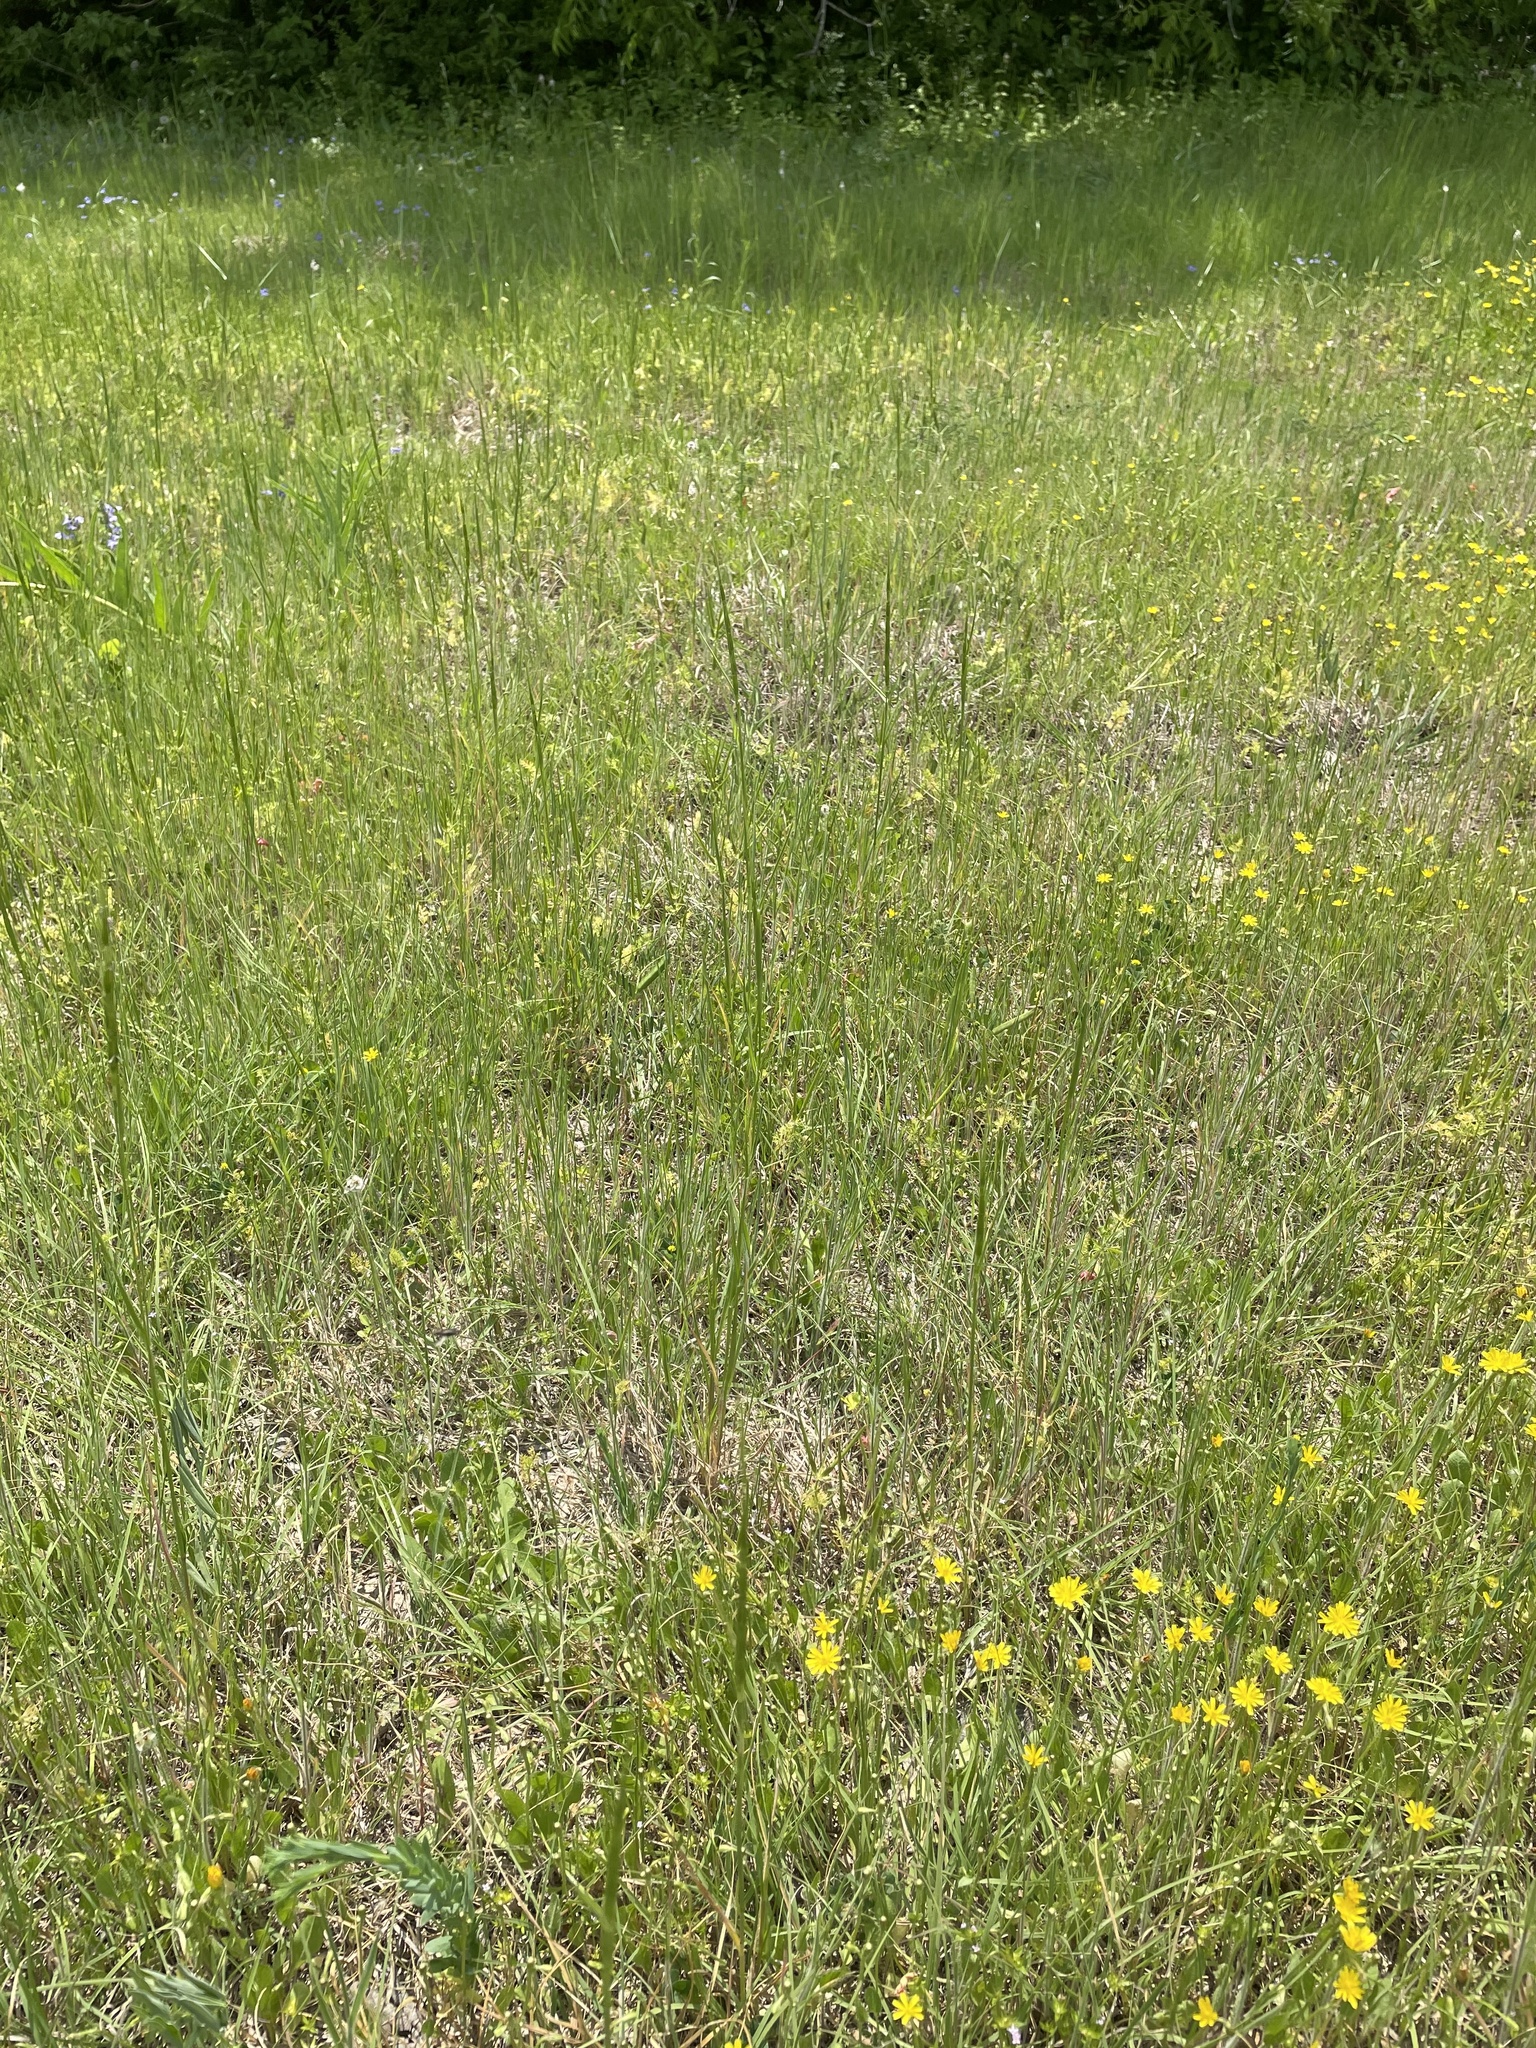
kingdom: Plantae
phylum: Tracheophyta
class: Liliopsida
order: Poales
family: Poaceae
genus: Aegilops
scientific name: Aegilops cylindrica
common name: Jointed goatgrass
